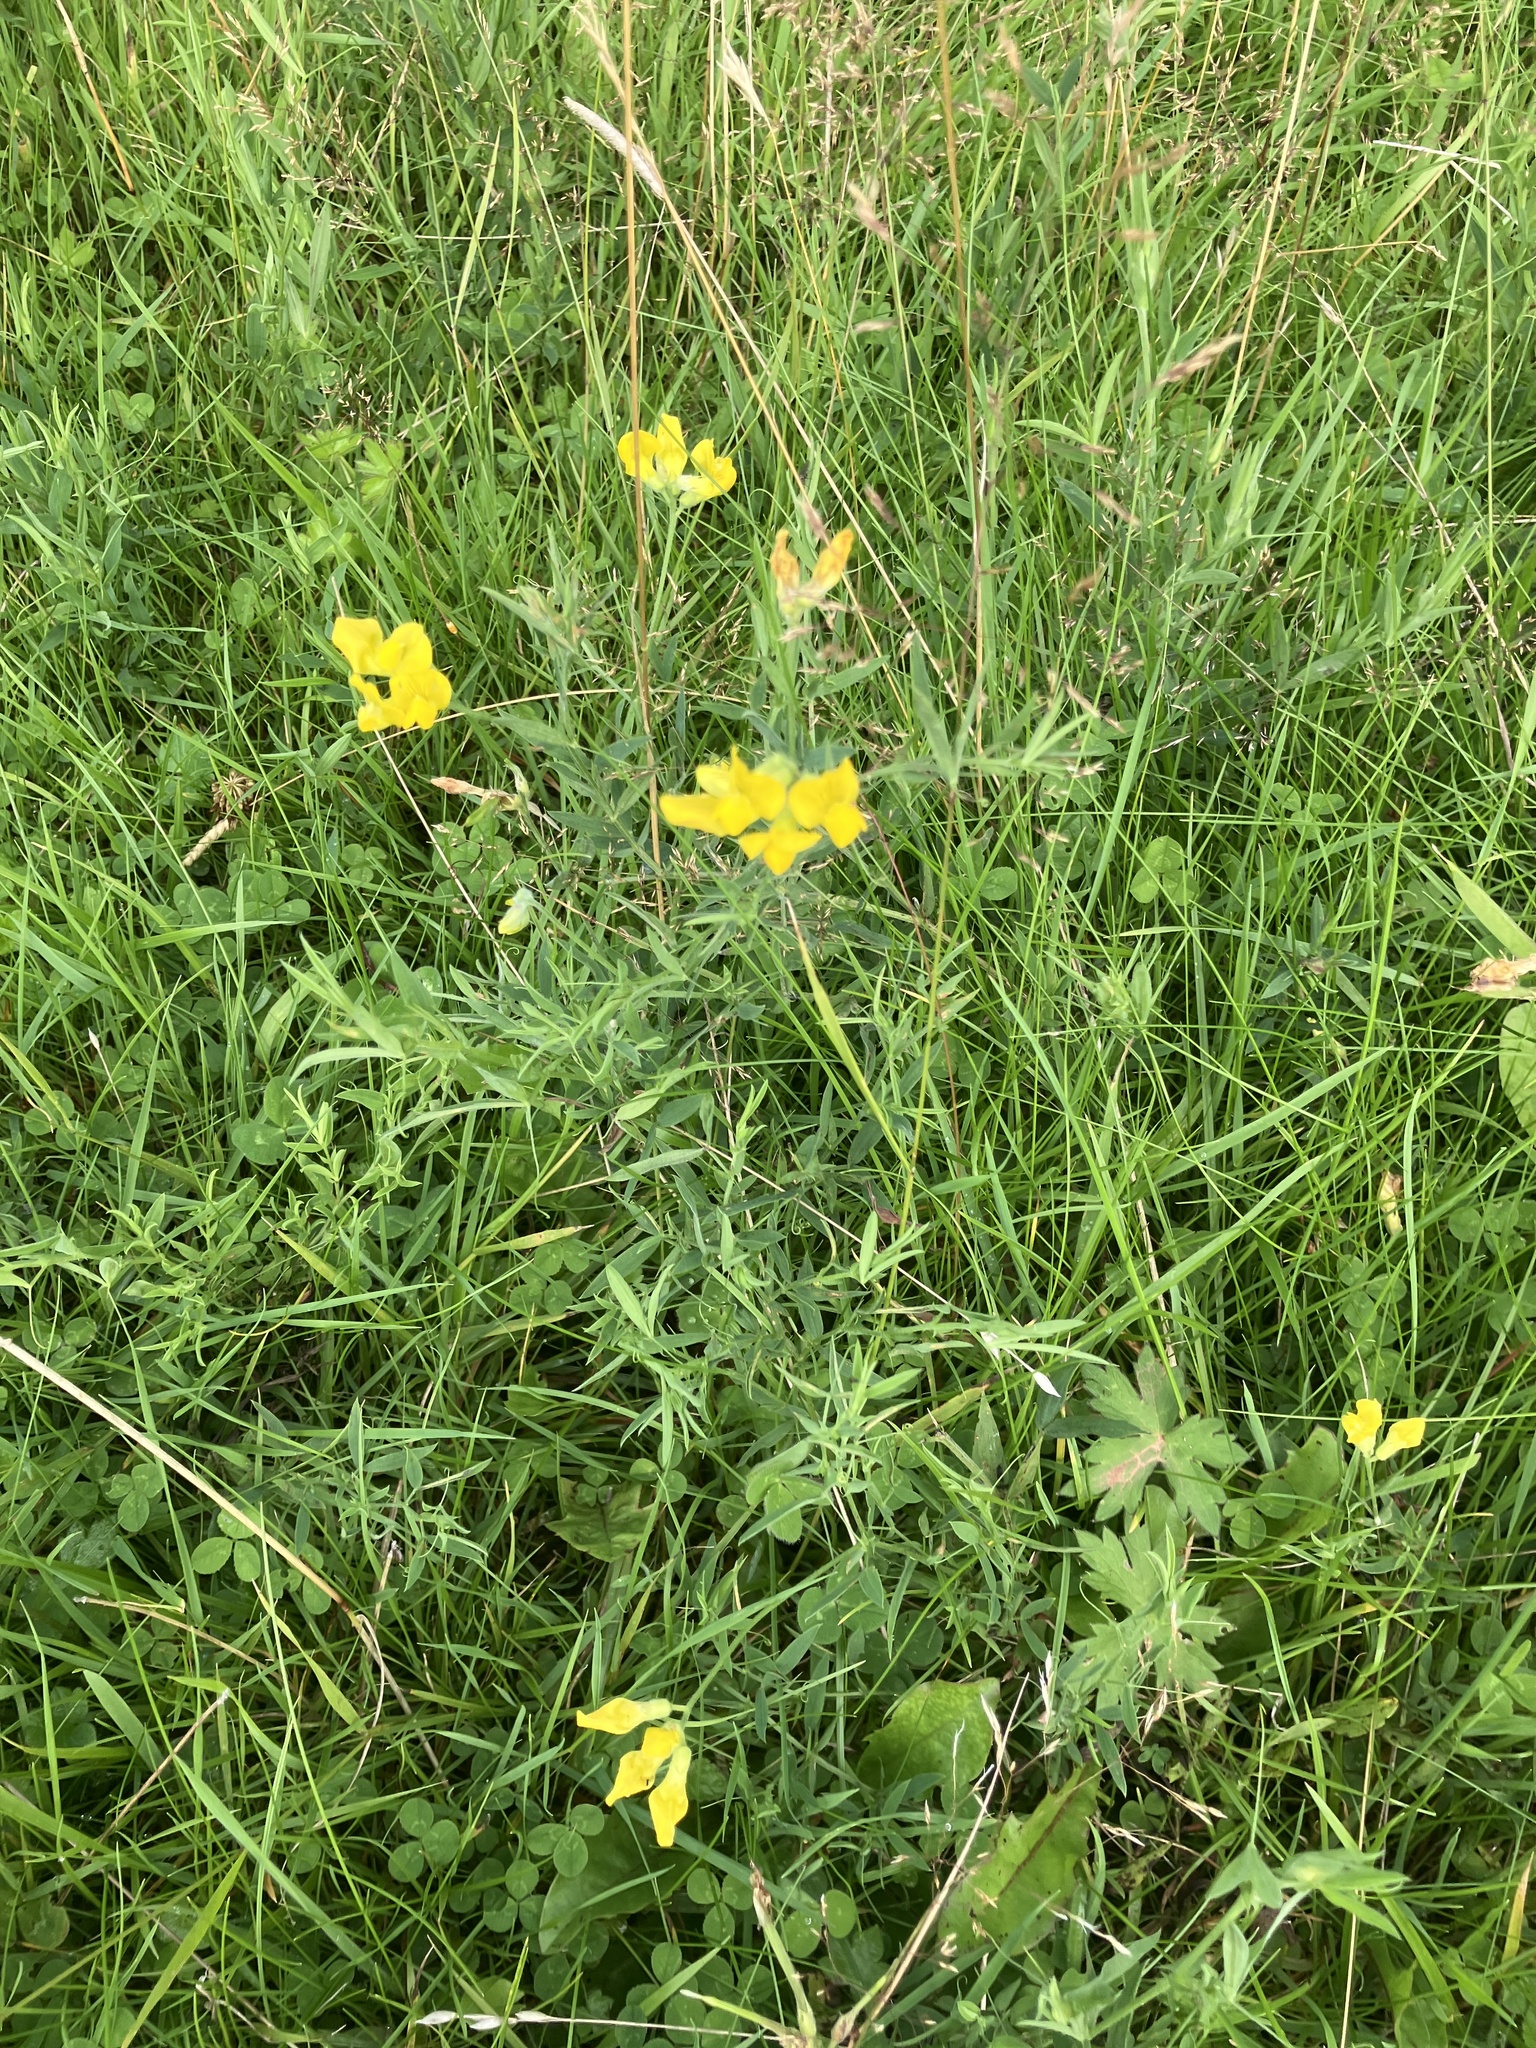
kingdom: Plantae
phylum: Tracheophyta
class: Magnoliopsida
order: Fabales
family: Fabaceae
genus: Lathyrus
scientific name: Lathyrus pratensis
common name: Meadow vetchling
